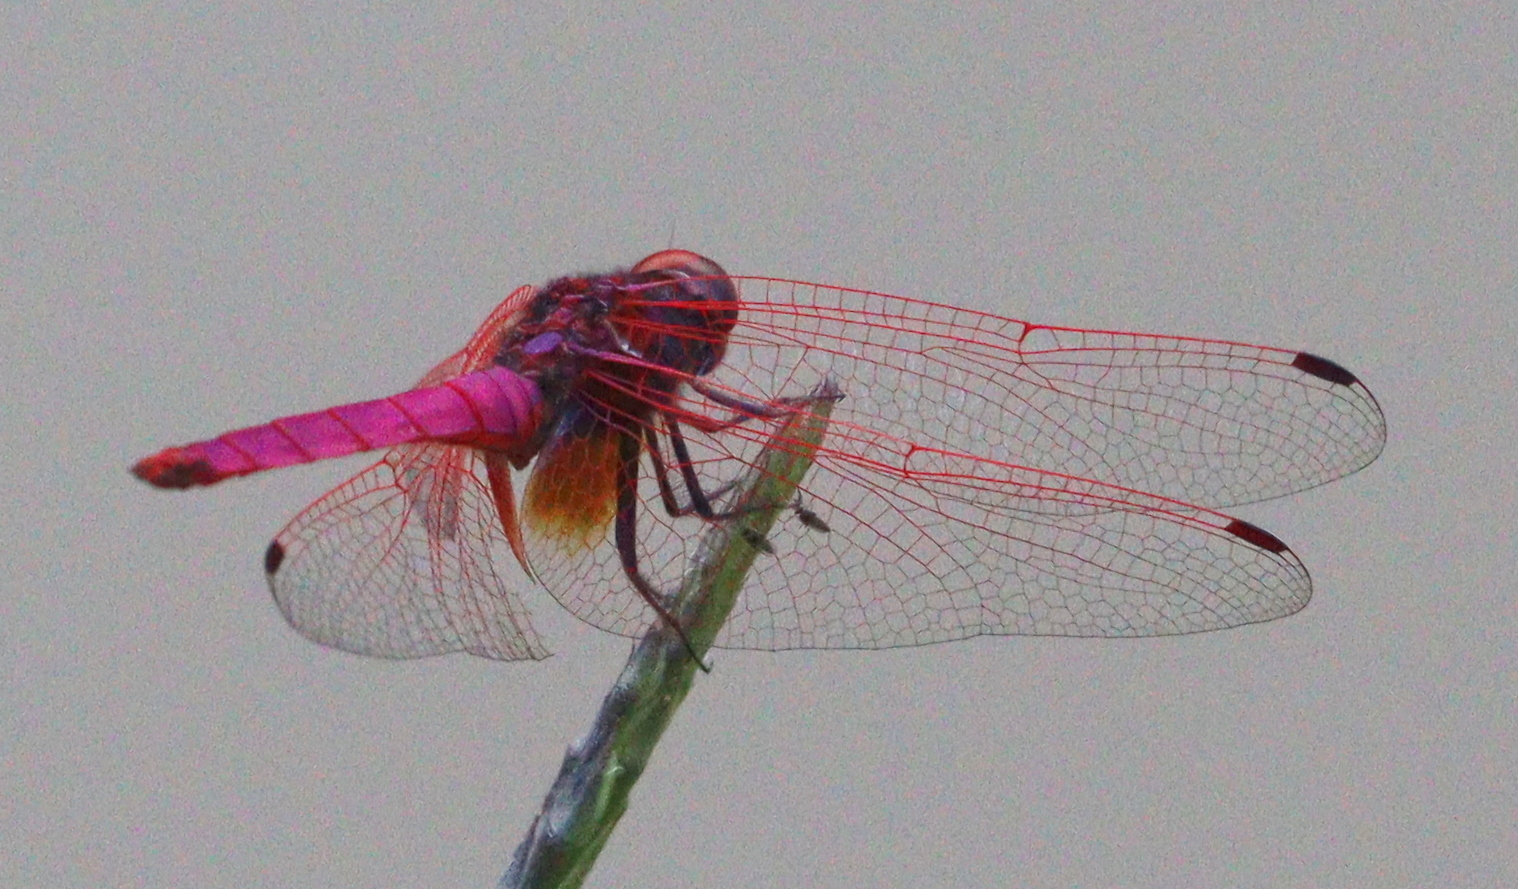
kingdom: Animalia
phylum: Arthropoda
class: Insecta
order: Odonata
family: Libellulidae
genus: Trithemis
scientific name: Trithemis aurora
